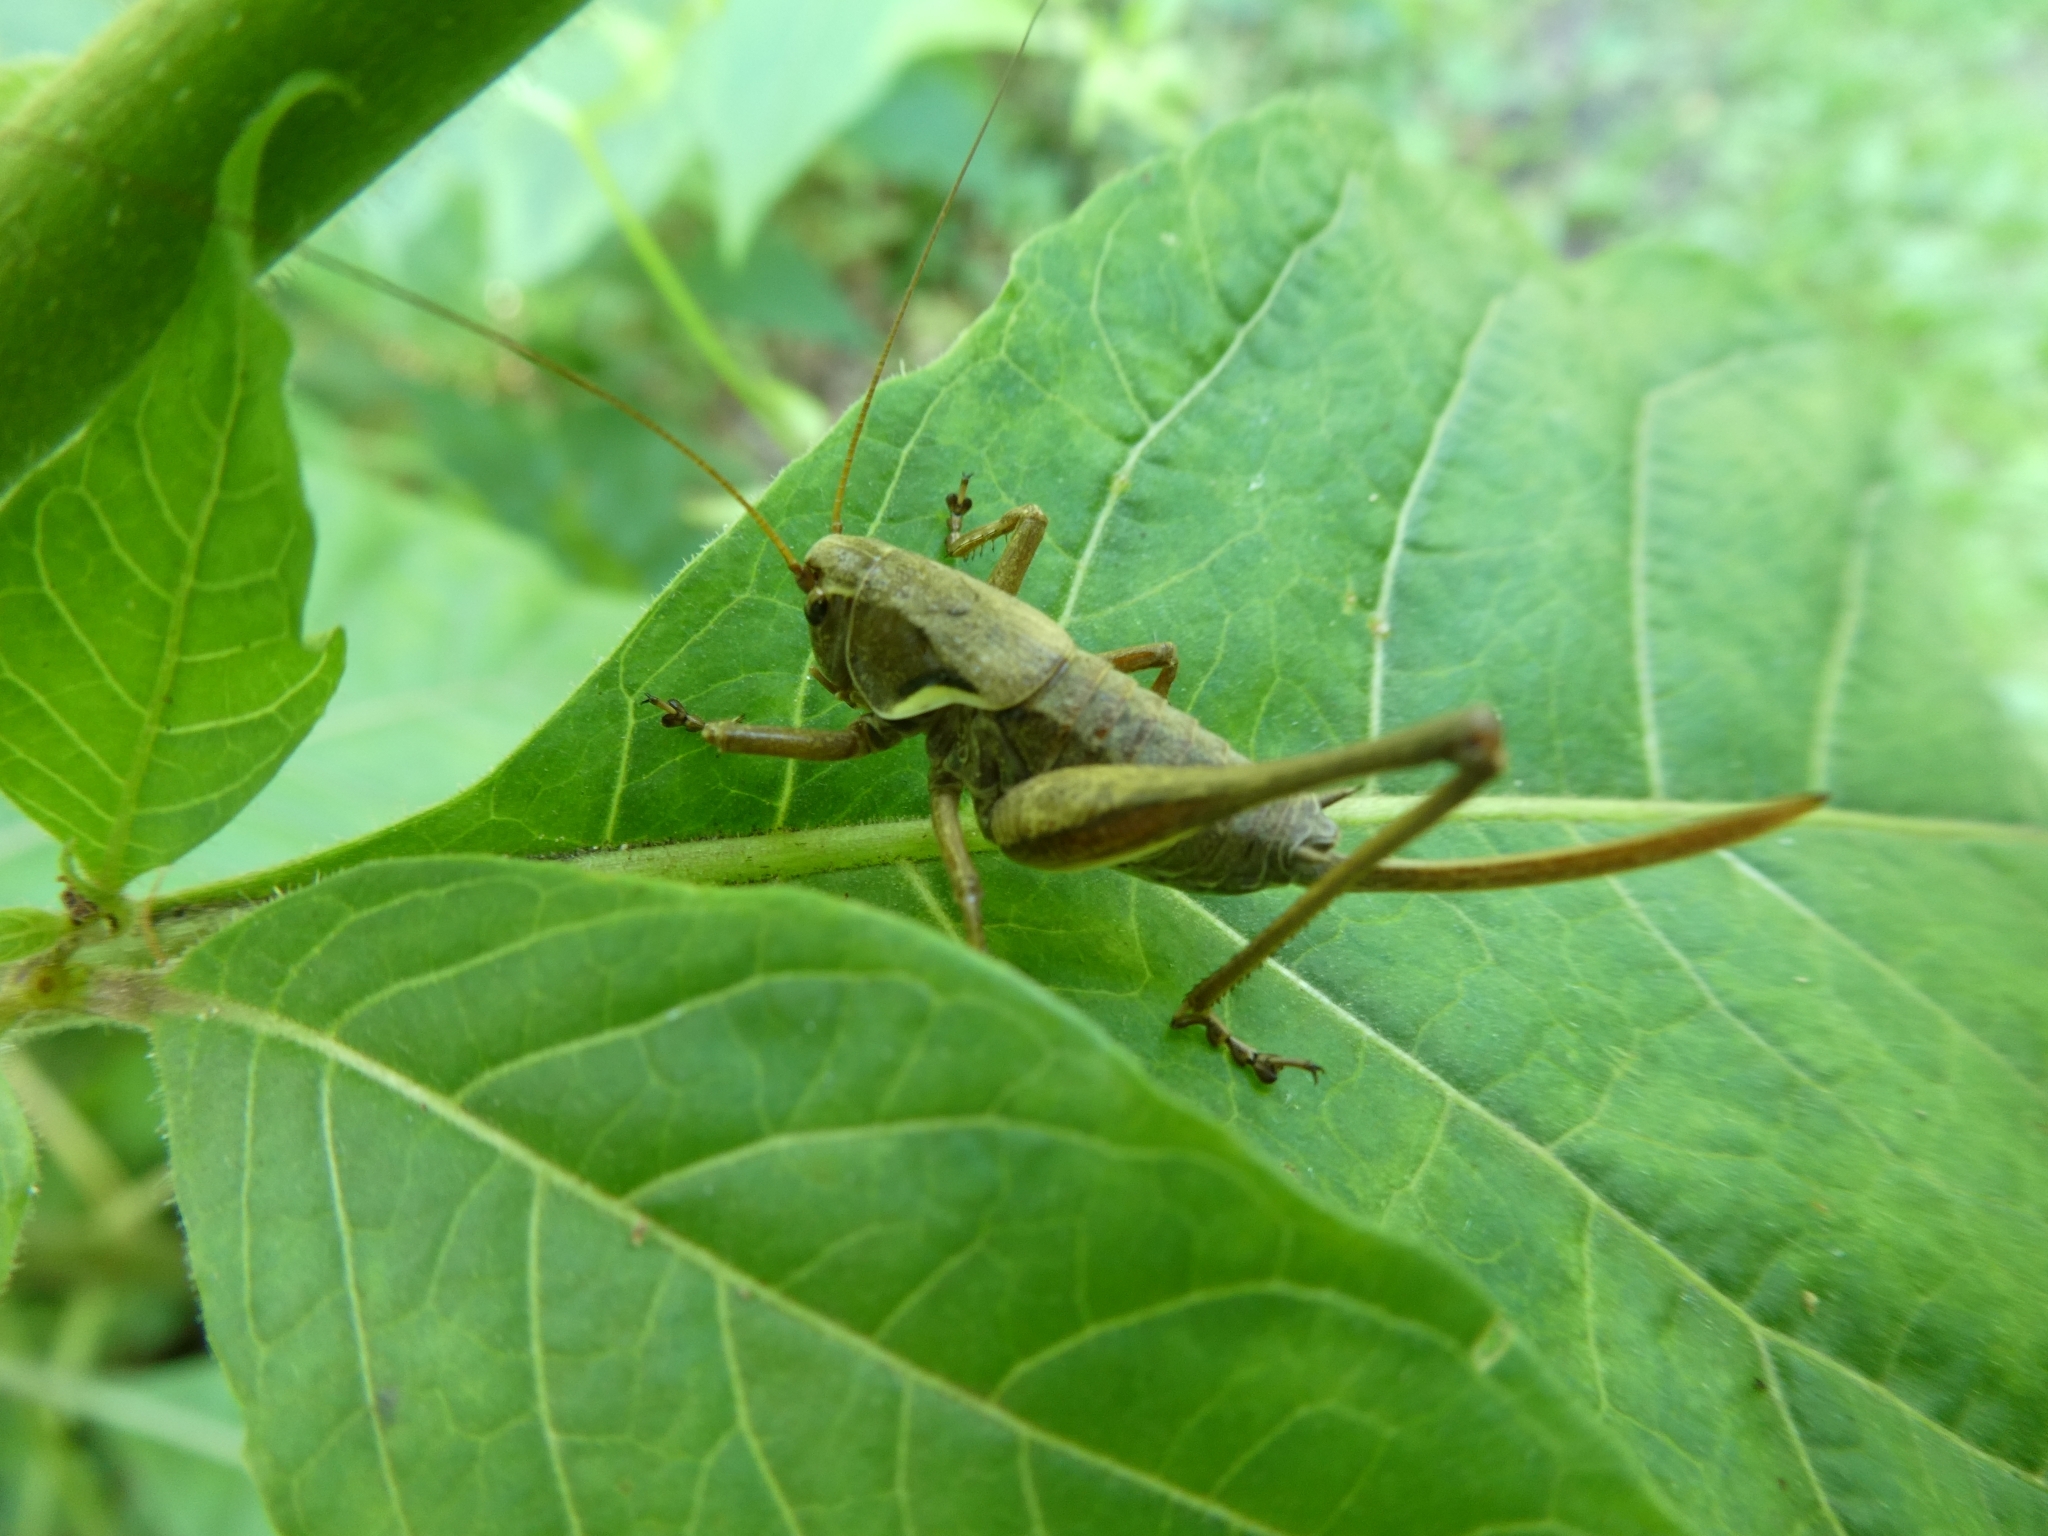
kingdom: Animalia
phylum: Arthropoda
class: Insecta
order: Orthoptera
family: Tettigoniidae
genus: Pholidoptera
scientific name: Pholidoptera aptera
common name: Alpine dark bush-cricket
